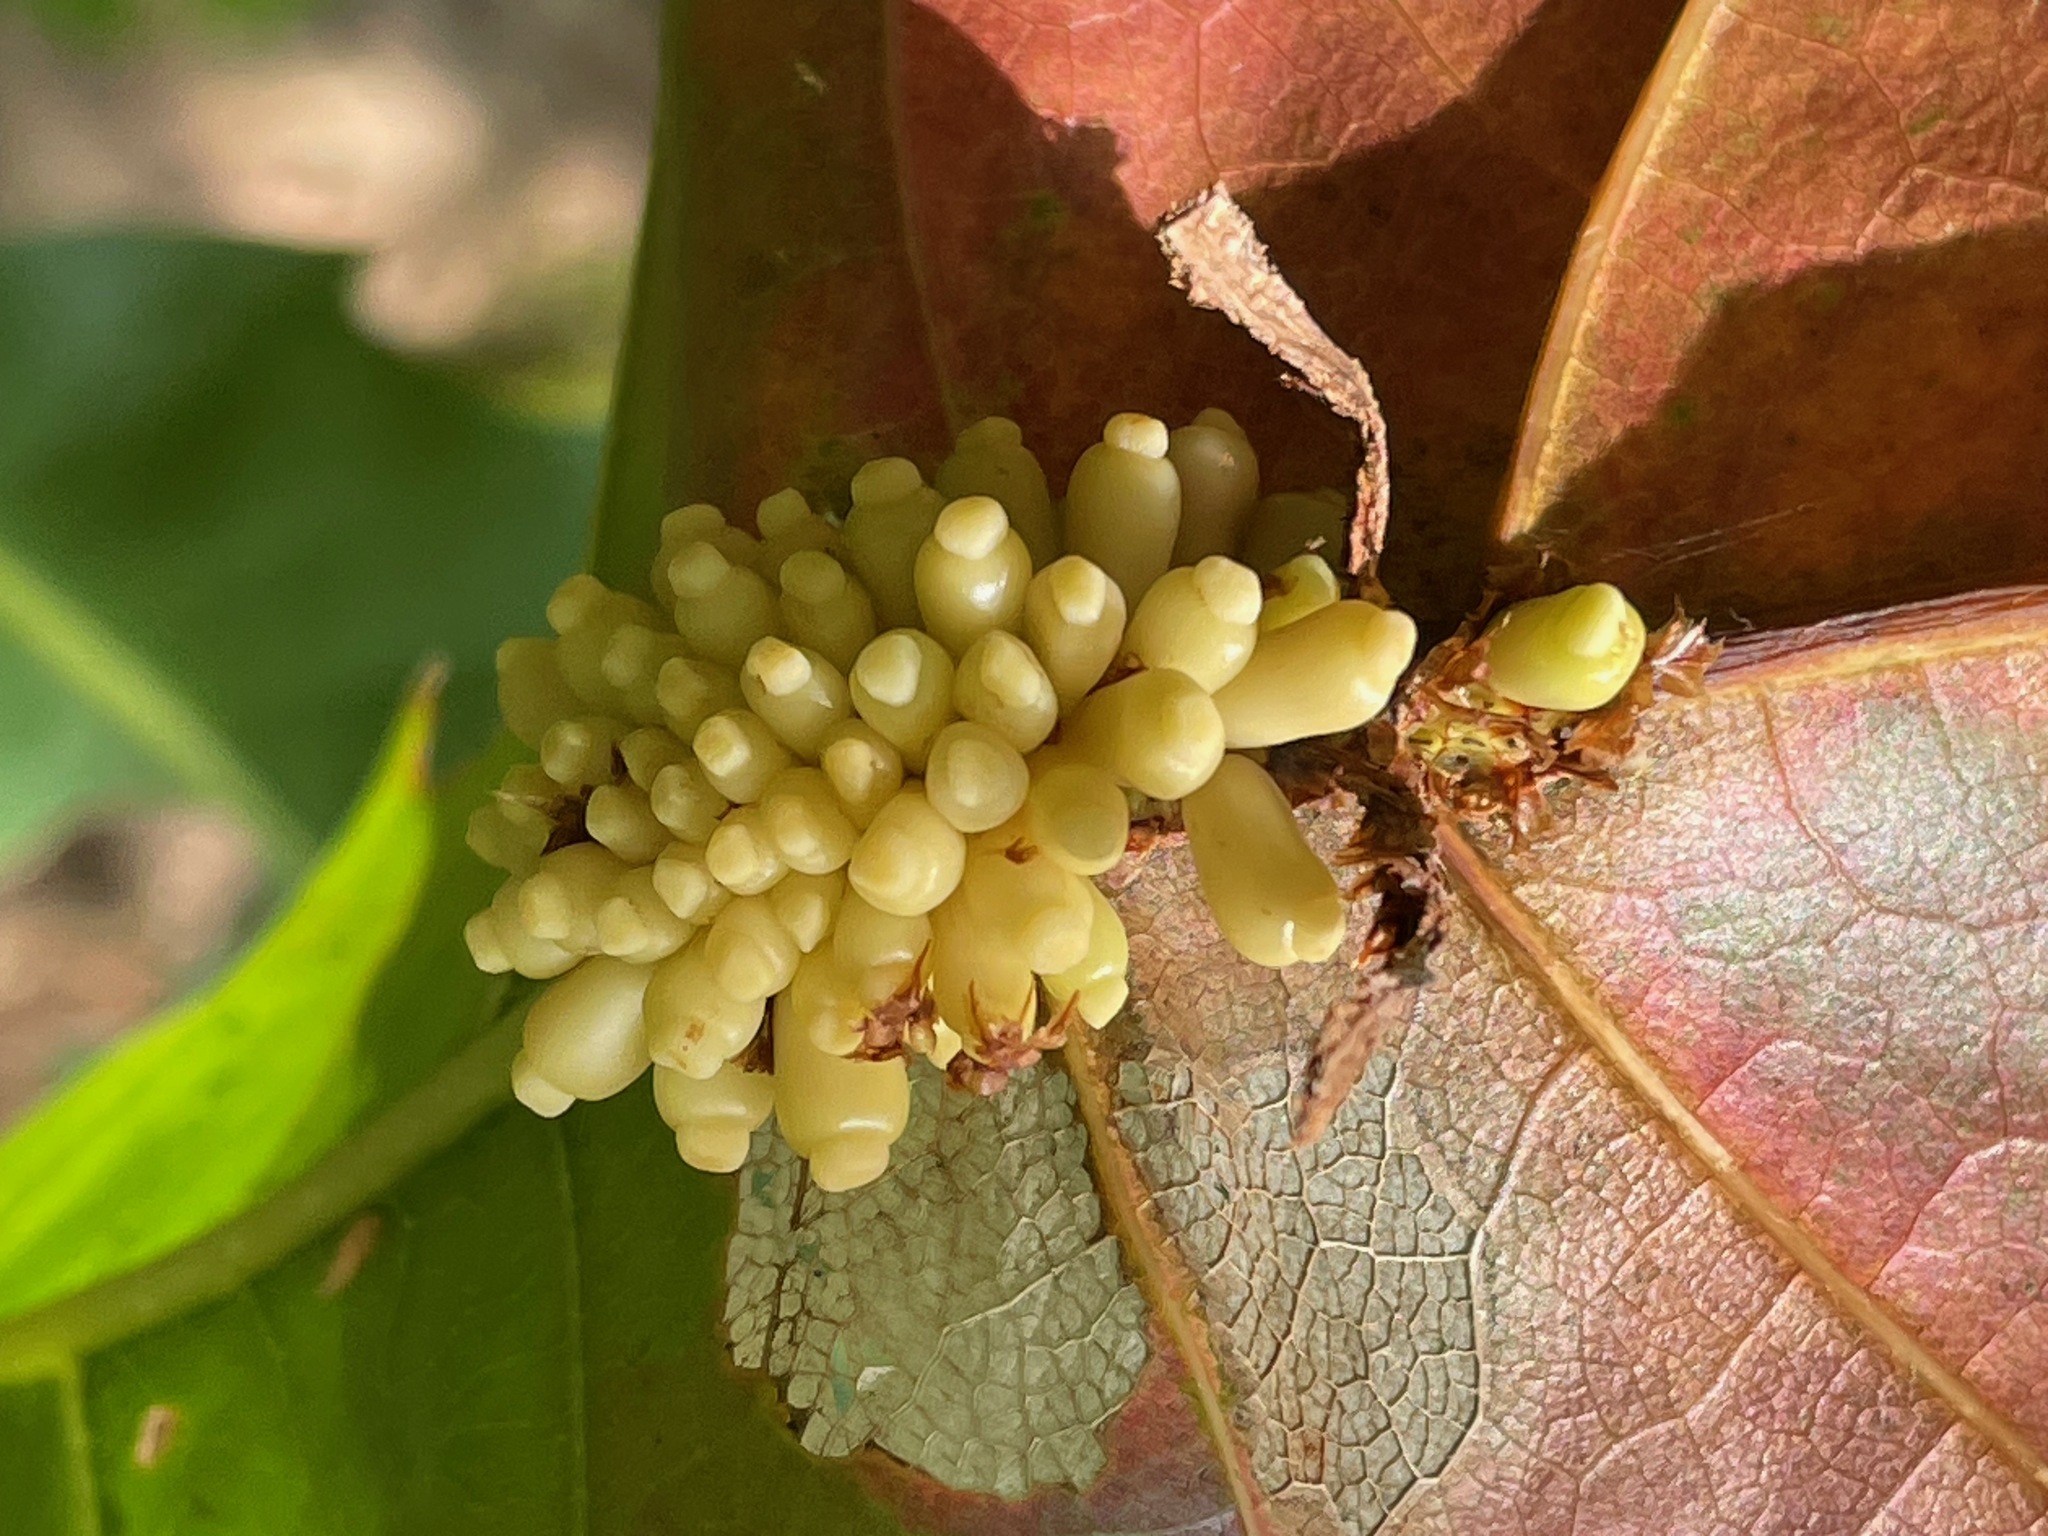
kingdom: Animalia
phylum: Arthropoda
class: Insecta
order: Hymenoptera
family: Cynipidae
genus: Kokkocynips
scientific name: Kokkocynips decidua
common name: Oak wheat gall
